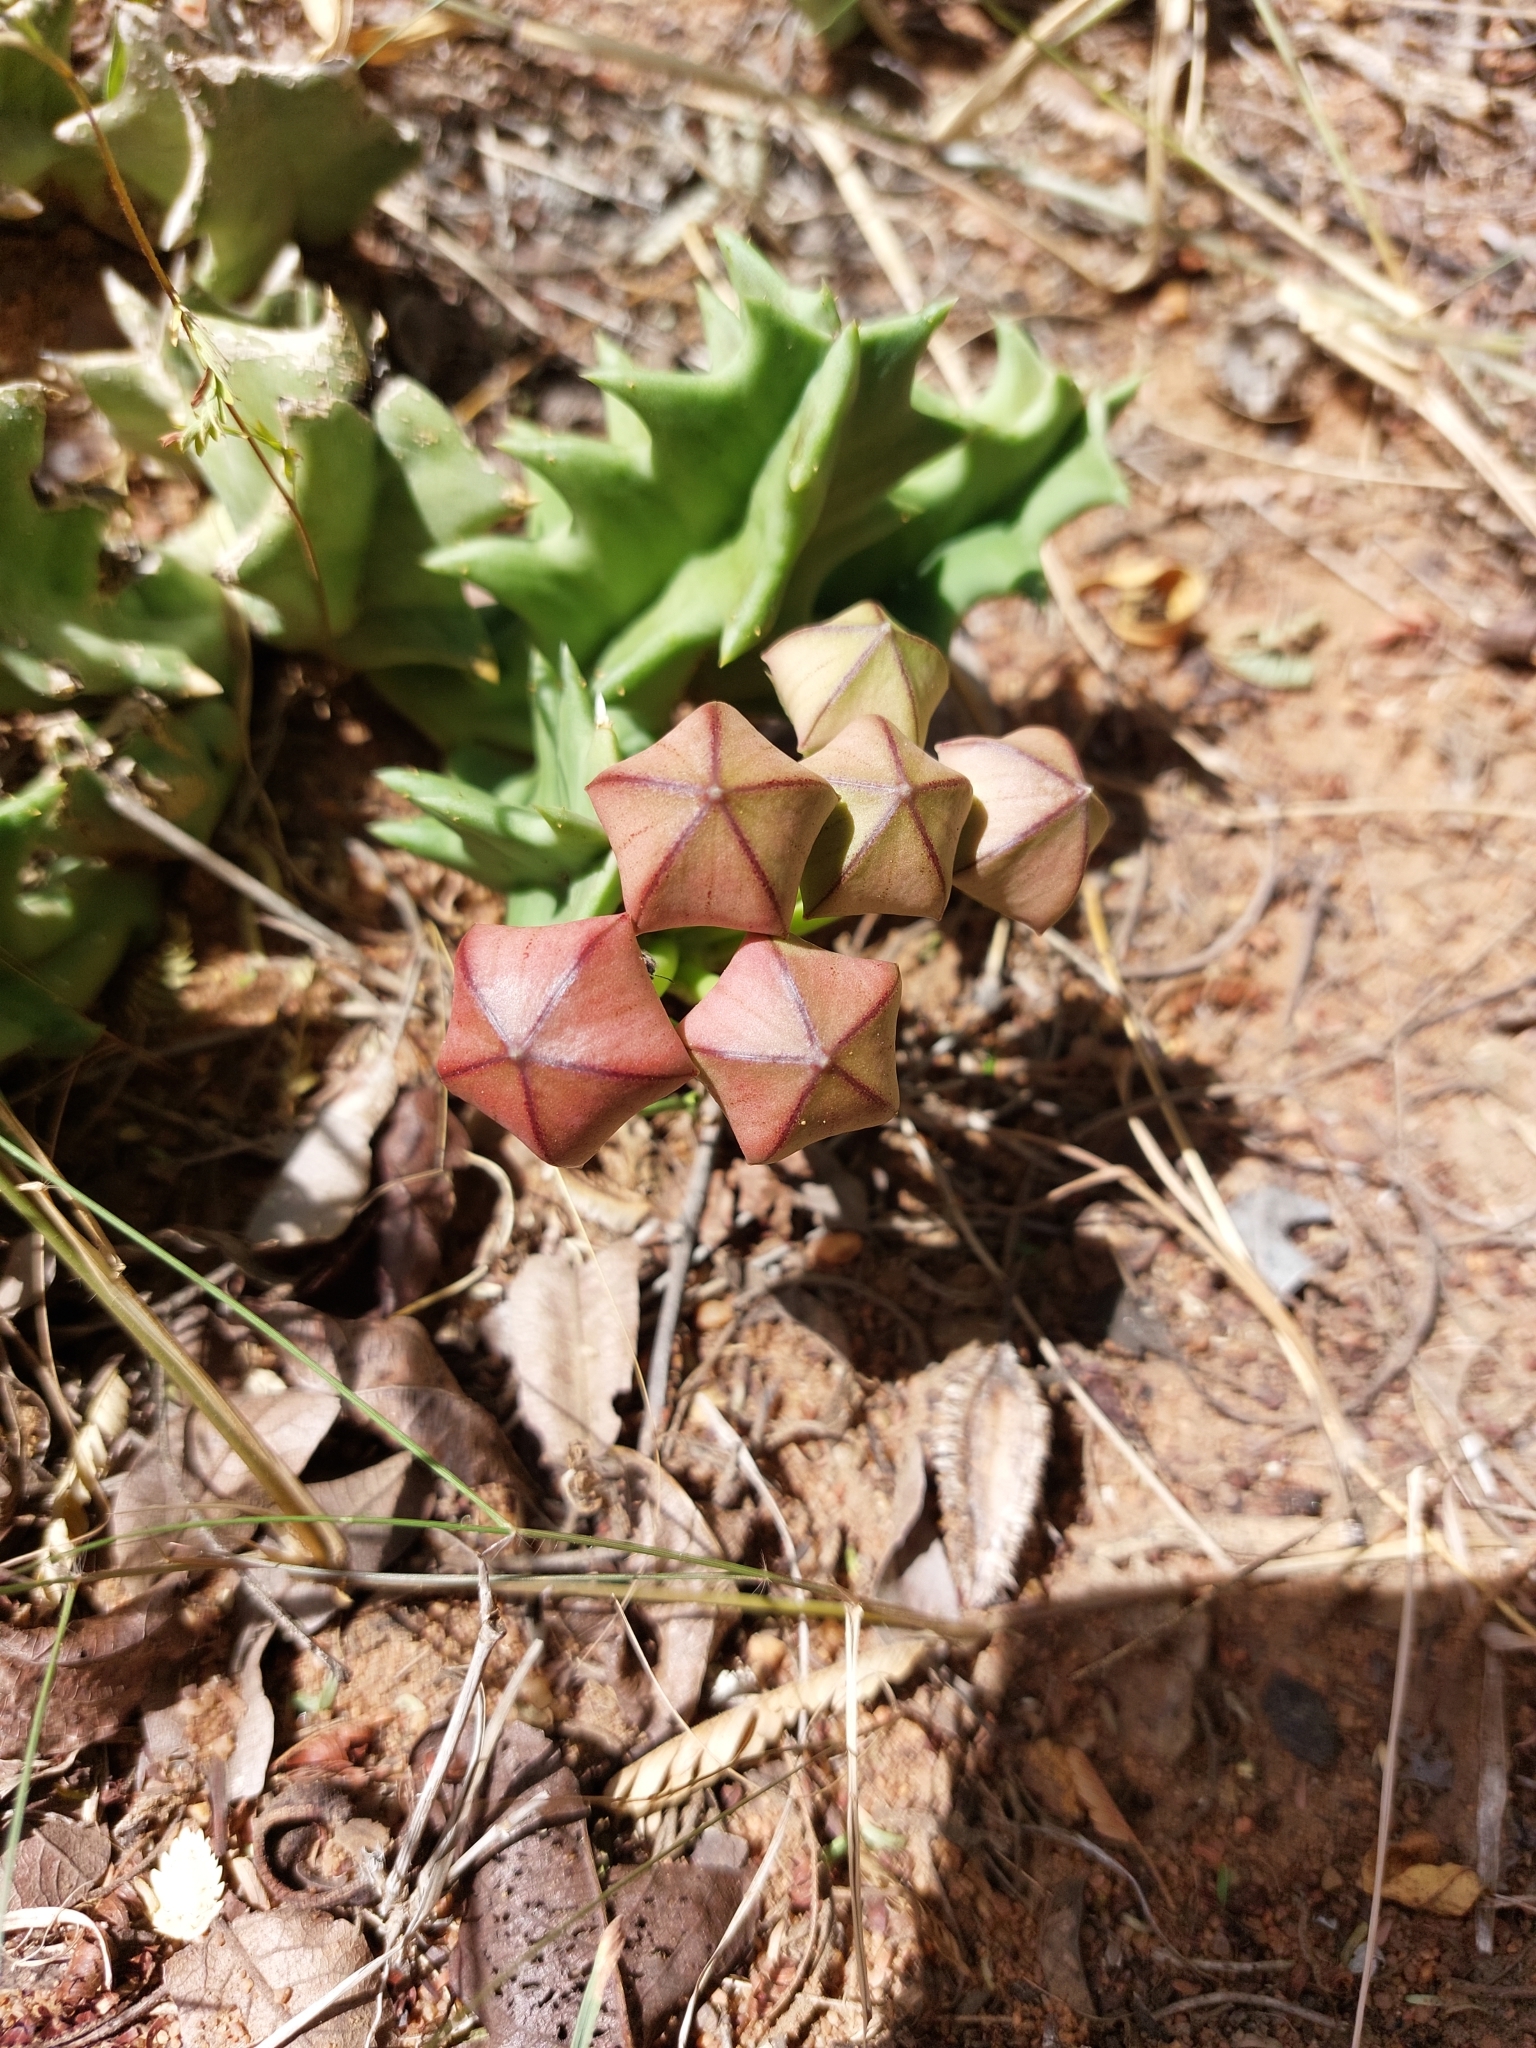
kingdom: Plantae
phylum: Tracheophyta
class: Magnoliopsida
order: Gentianales
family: Apocynaceae
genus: Ceropegia
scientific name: Ceropegia melanantha
